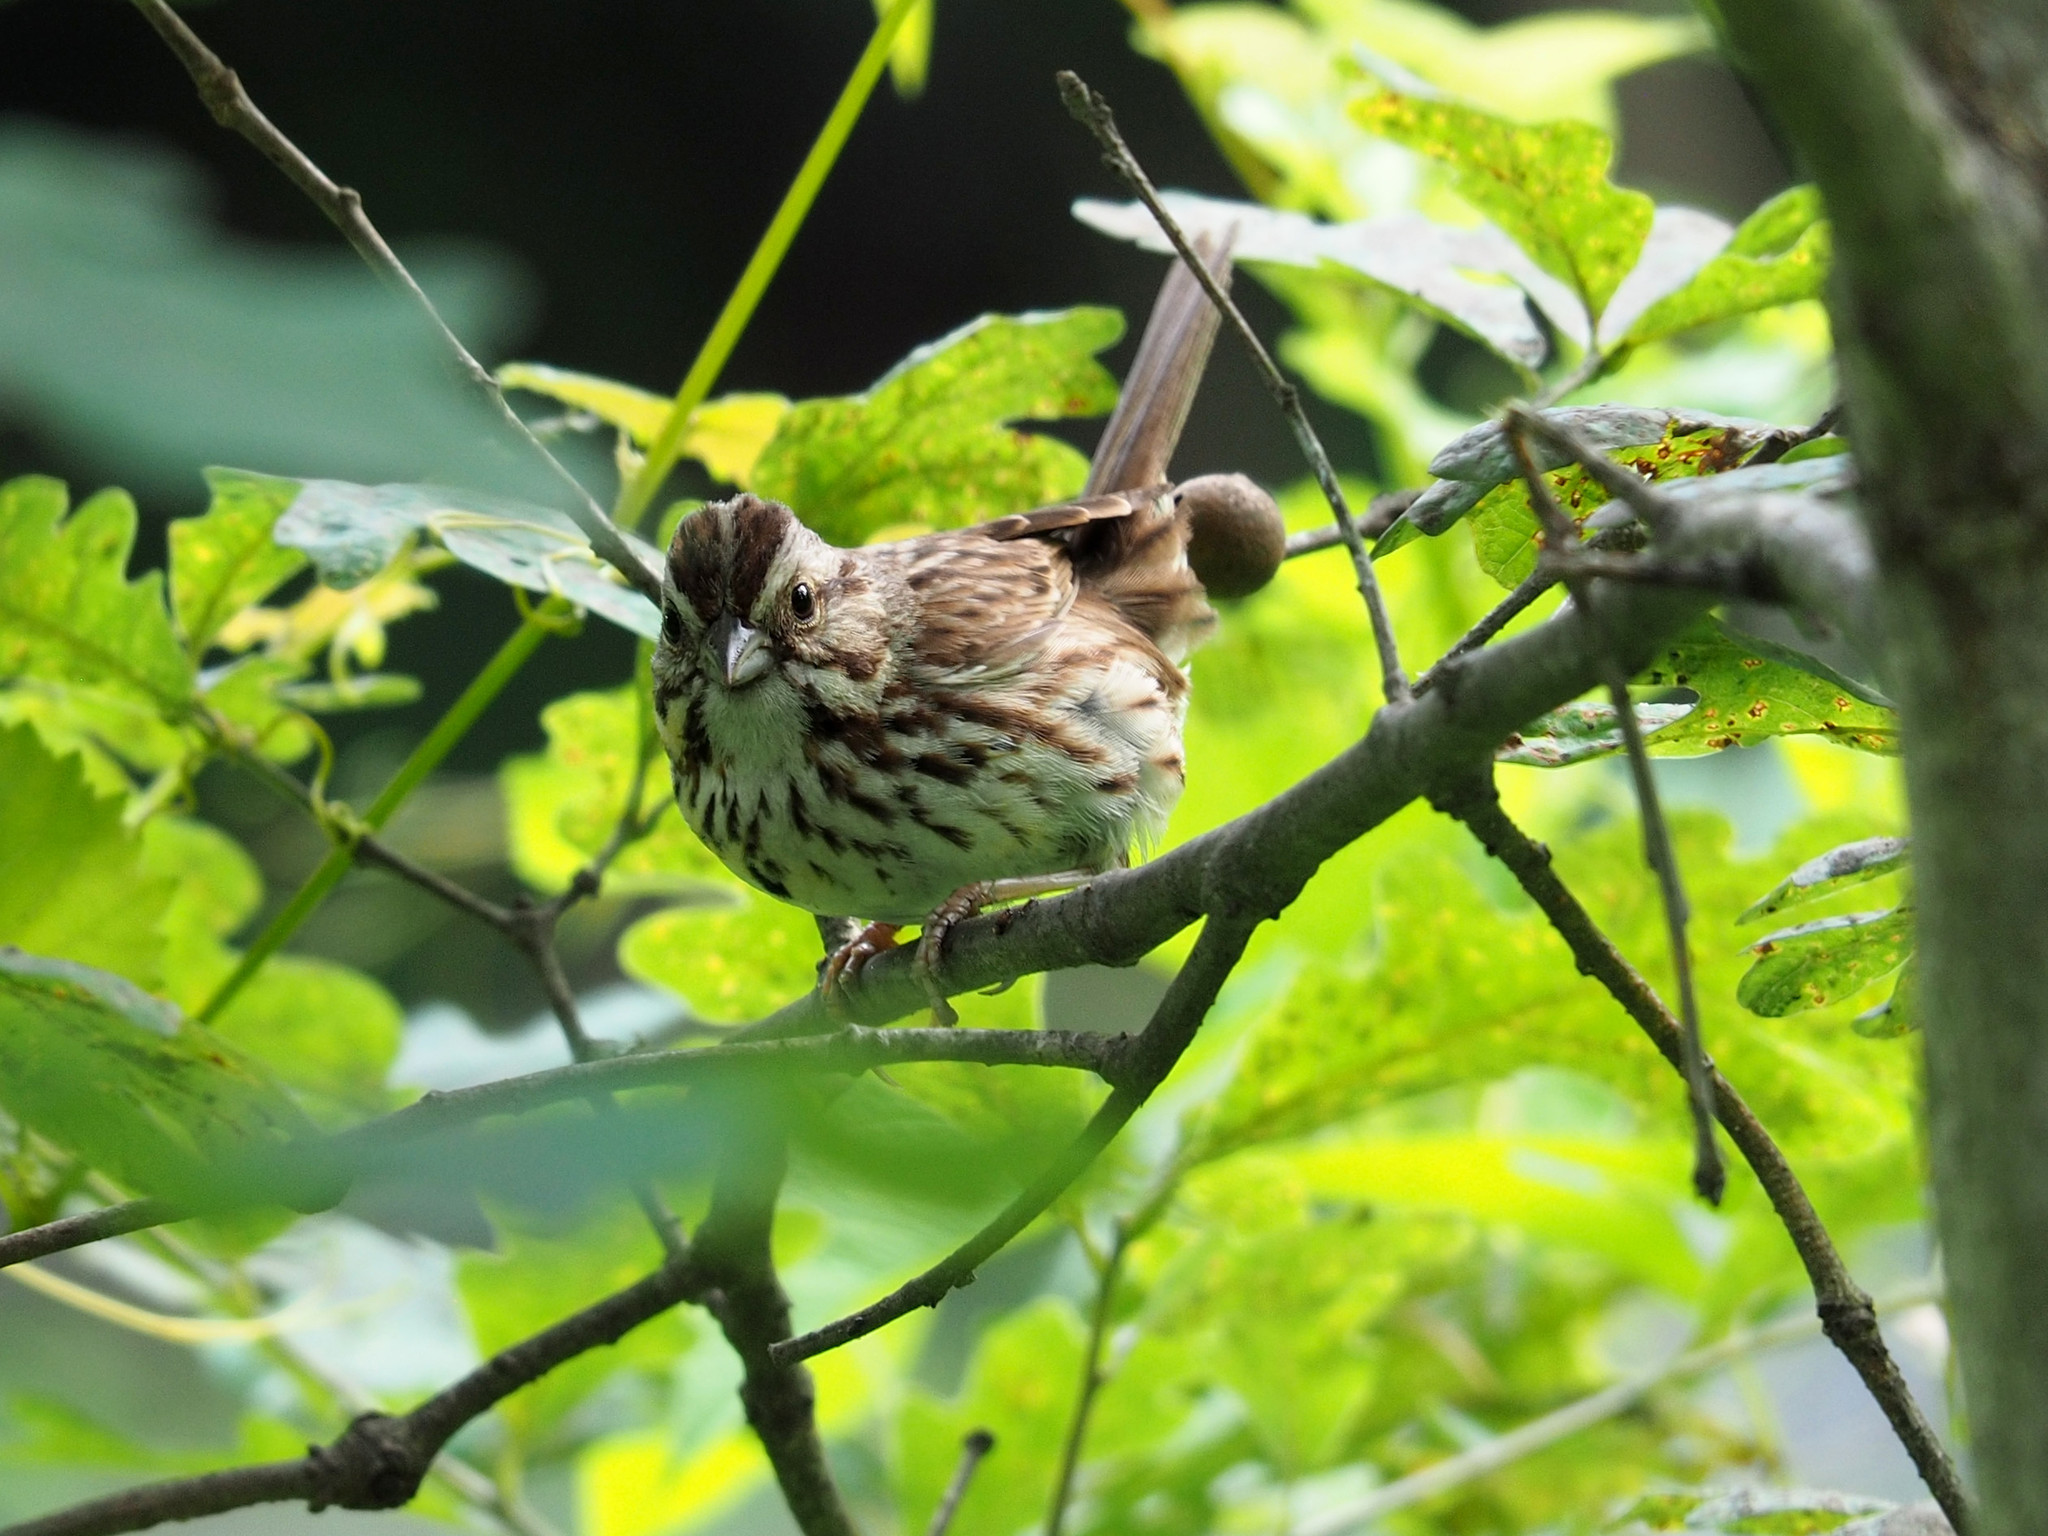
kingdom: Animalia
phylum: Chordata
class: Aves
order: Passeriformes
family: Passerellidae
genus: Melospiza
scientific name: Melospiza melodia
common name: Song sparrow
